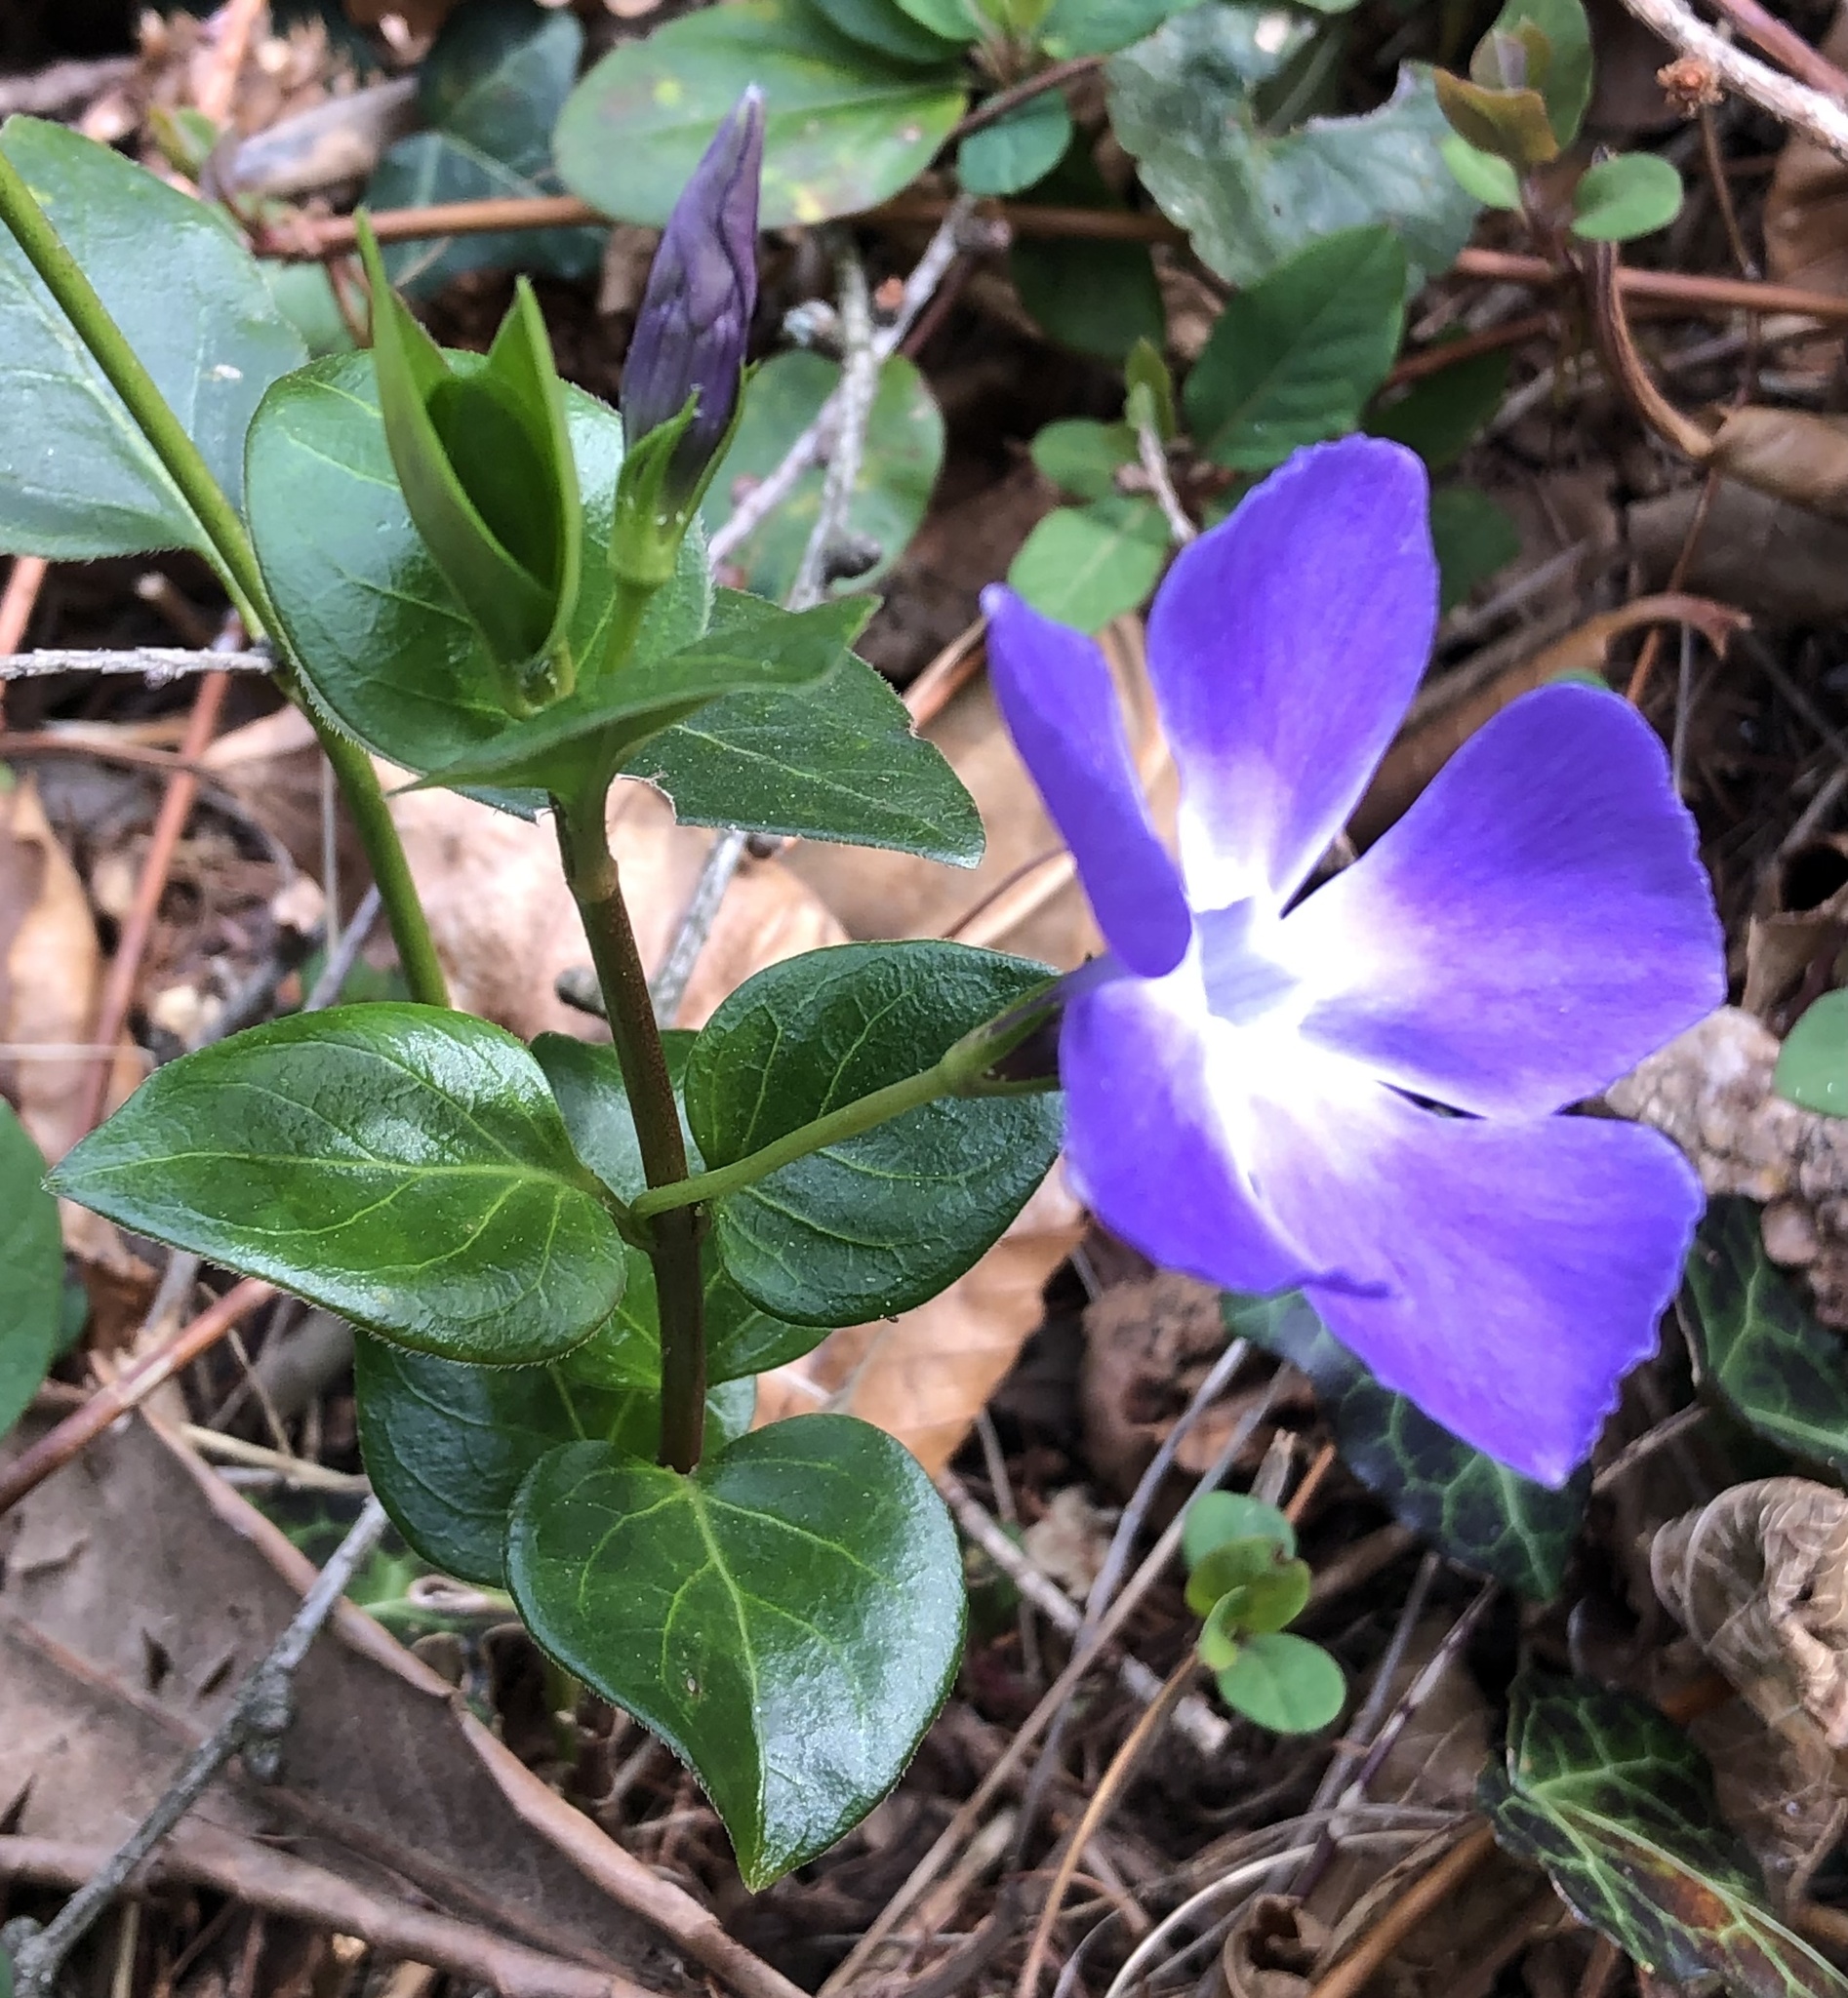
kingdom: Plantae
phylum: Tracheophyta
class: Magnoliopsida
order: Gentianales
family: Apocynaceae
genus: Vinca
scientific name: Vinca major
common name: Greater periwinkle
